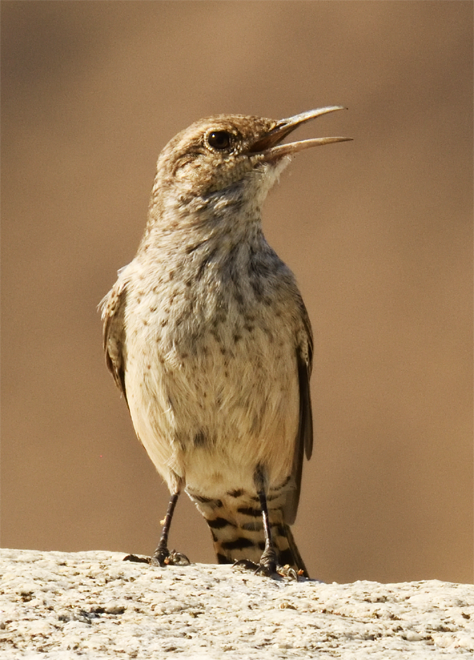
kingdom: Animalia
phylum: Chordata
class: Aves
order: Passeriformes
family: Troglodytidae
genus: Salpinctes
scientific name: Salpinctes obsoletus
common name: Rock wren
